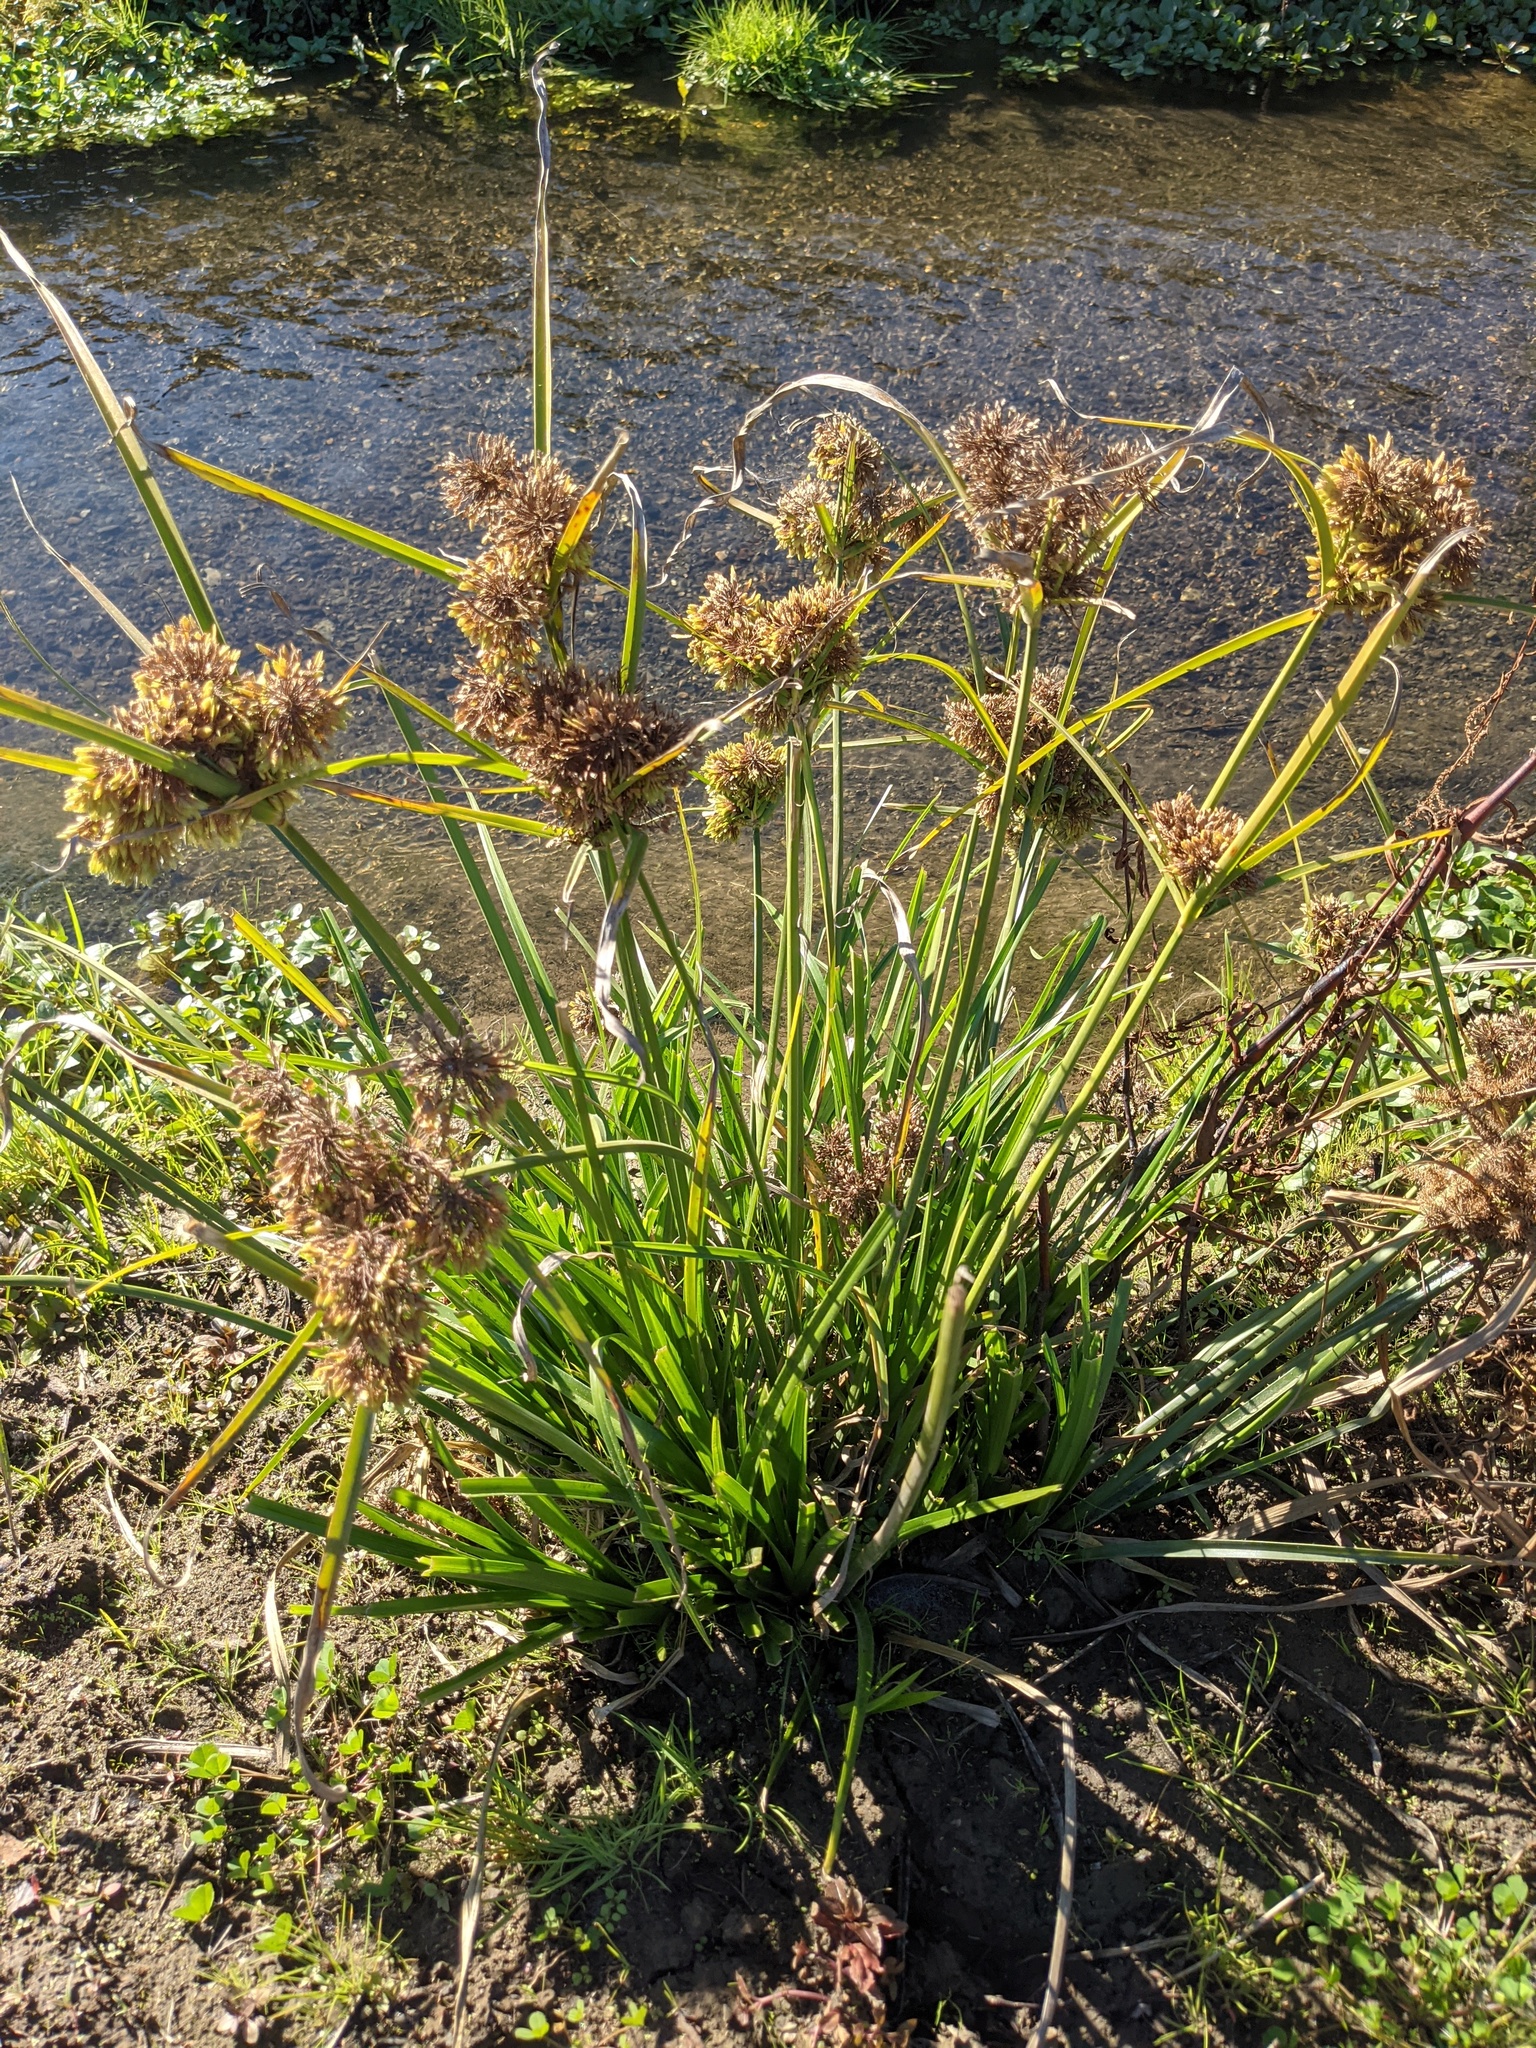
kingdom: Plantae
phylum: Tracheophyta
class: Liliopsida
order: Poales
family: Cyperaceae
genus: Cyperus
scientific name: Cyperus eragrostis
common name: Tall flatsedge
